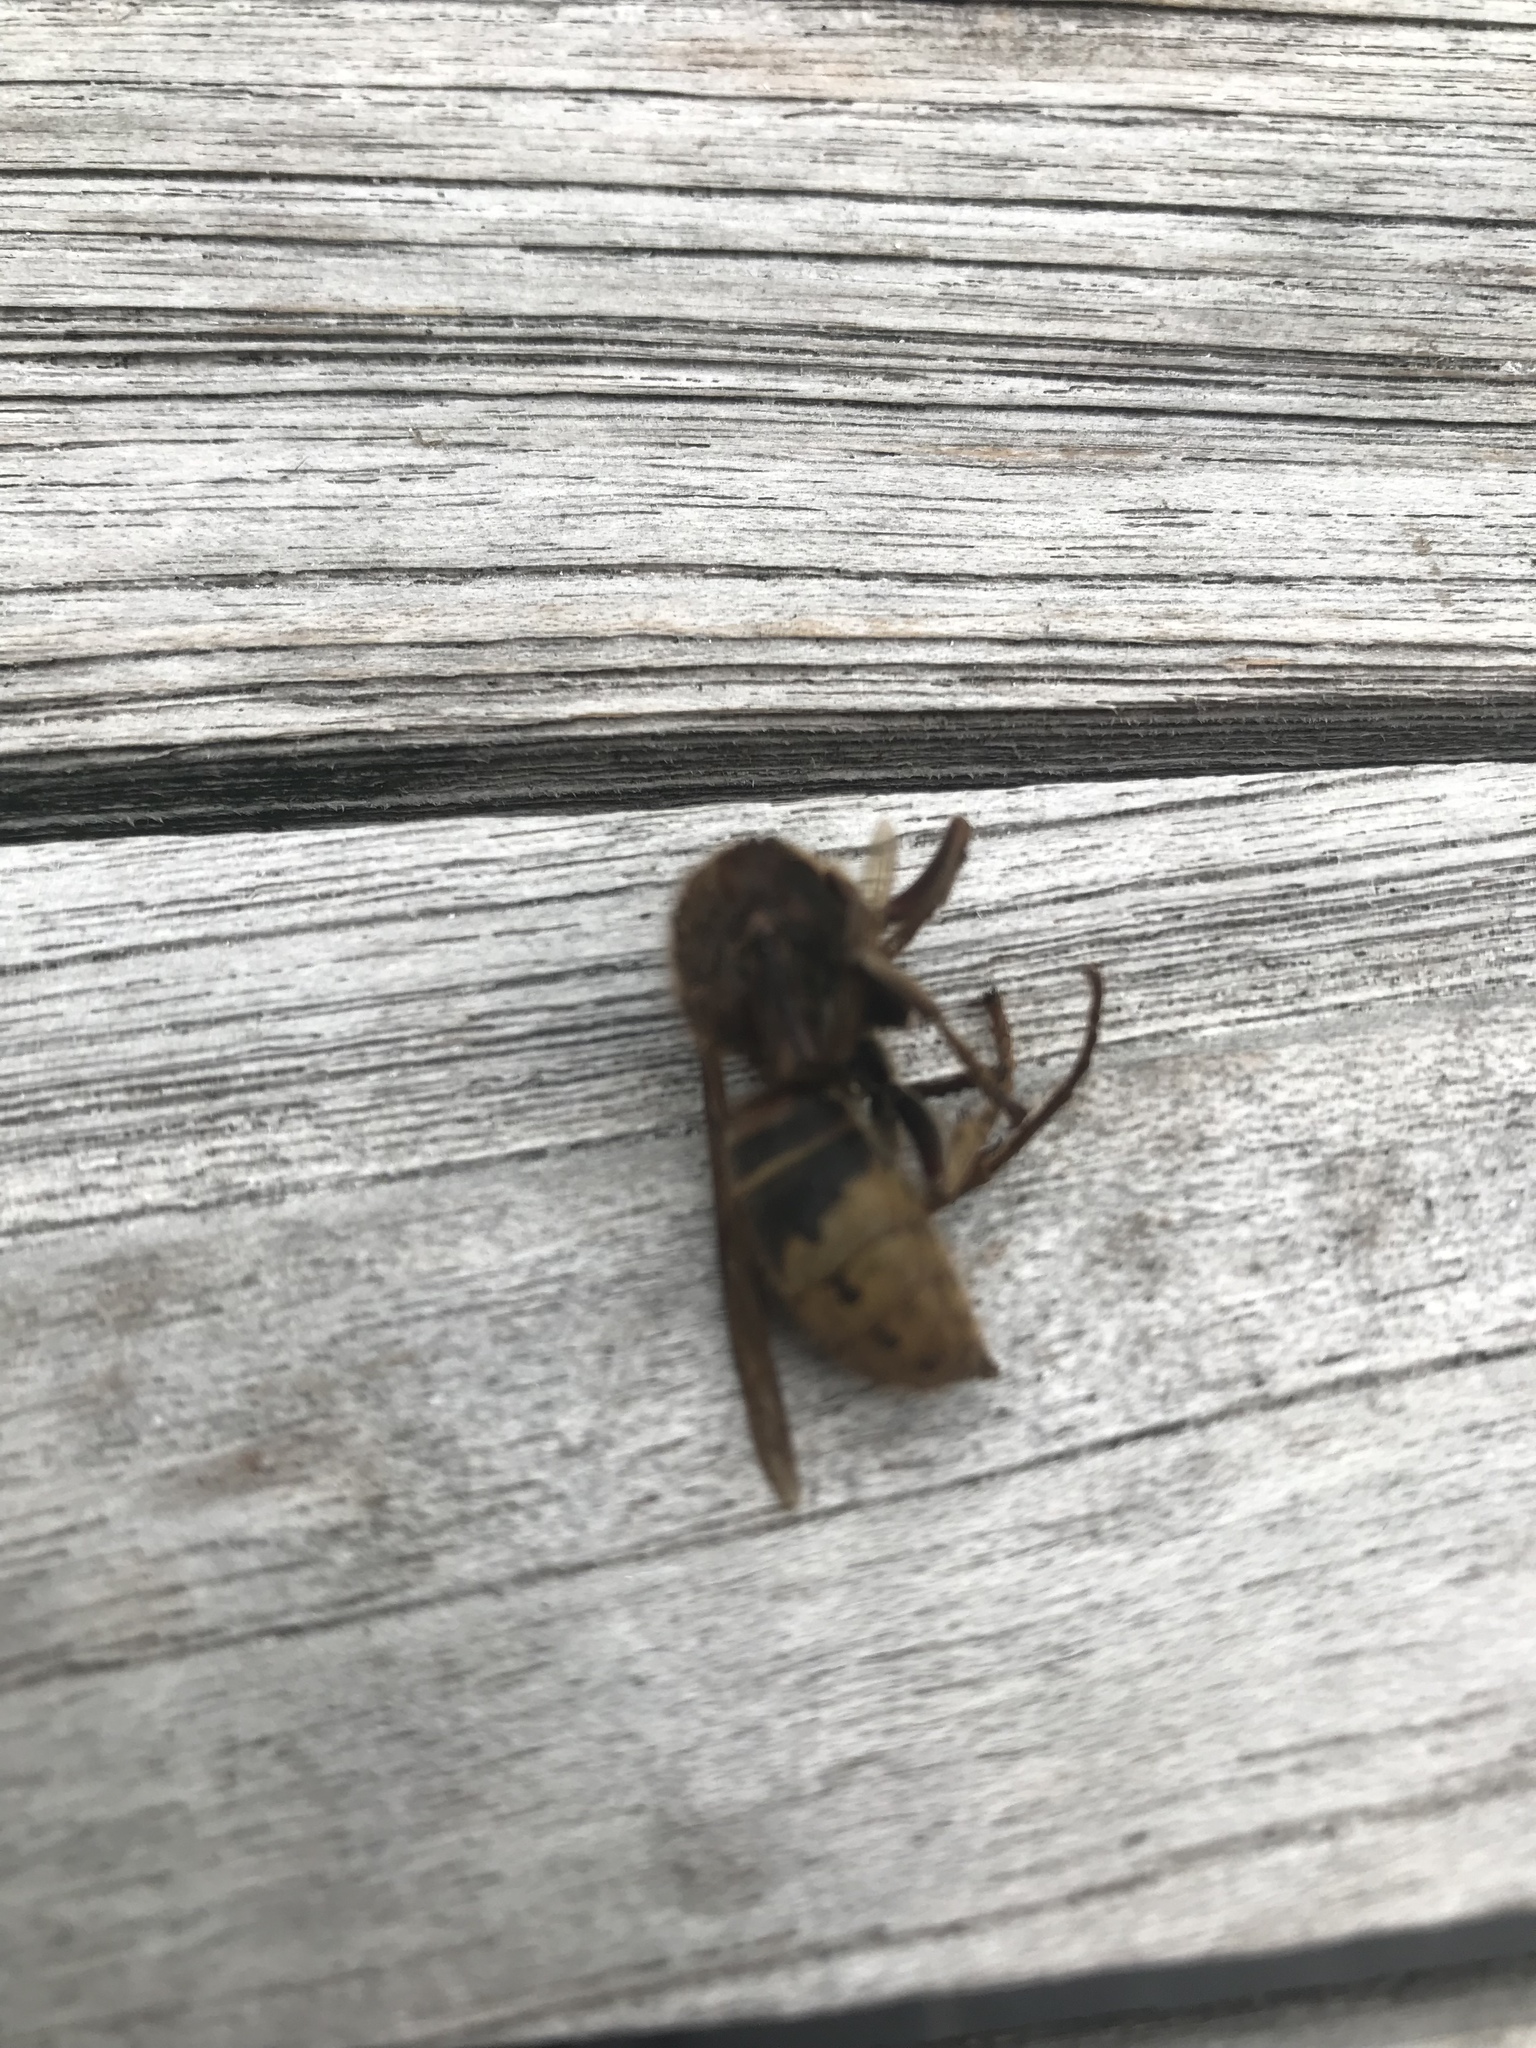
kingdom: Animalia
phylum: Arthropoda
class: Insecta
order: Hymenoptera
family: Vespidae
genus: Vespa
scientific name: Vespa crabro
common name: Hornet
